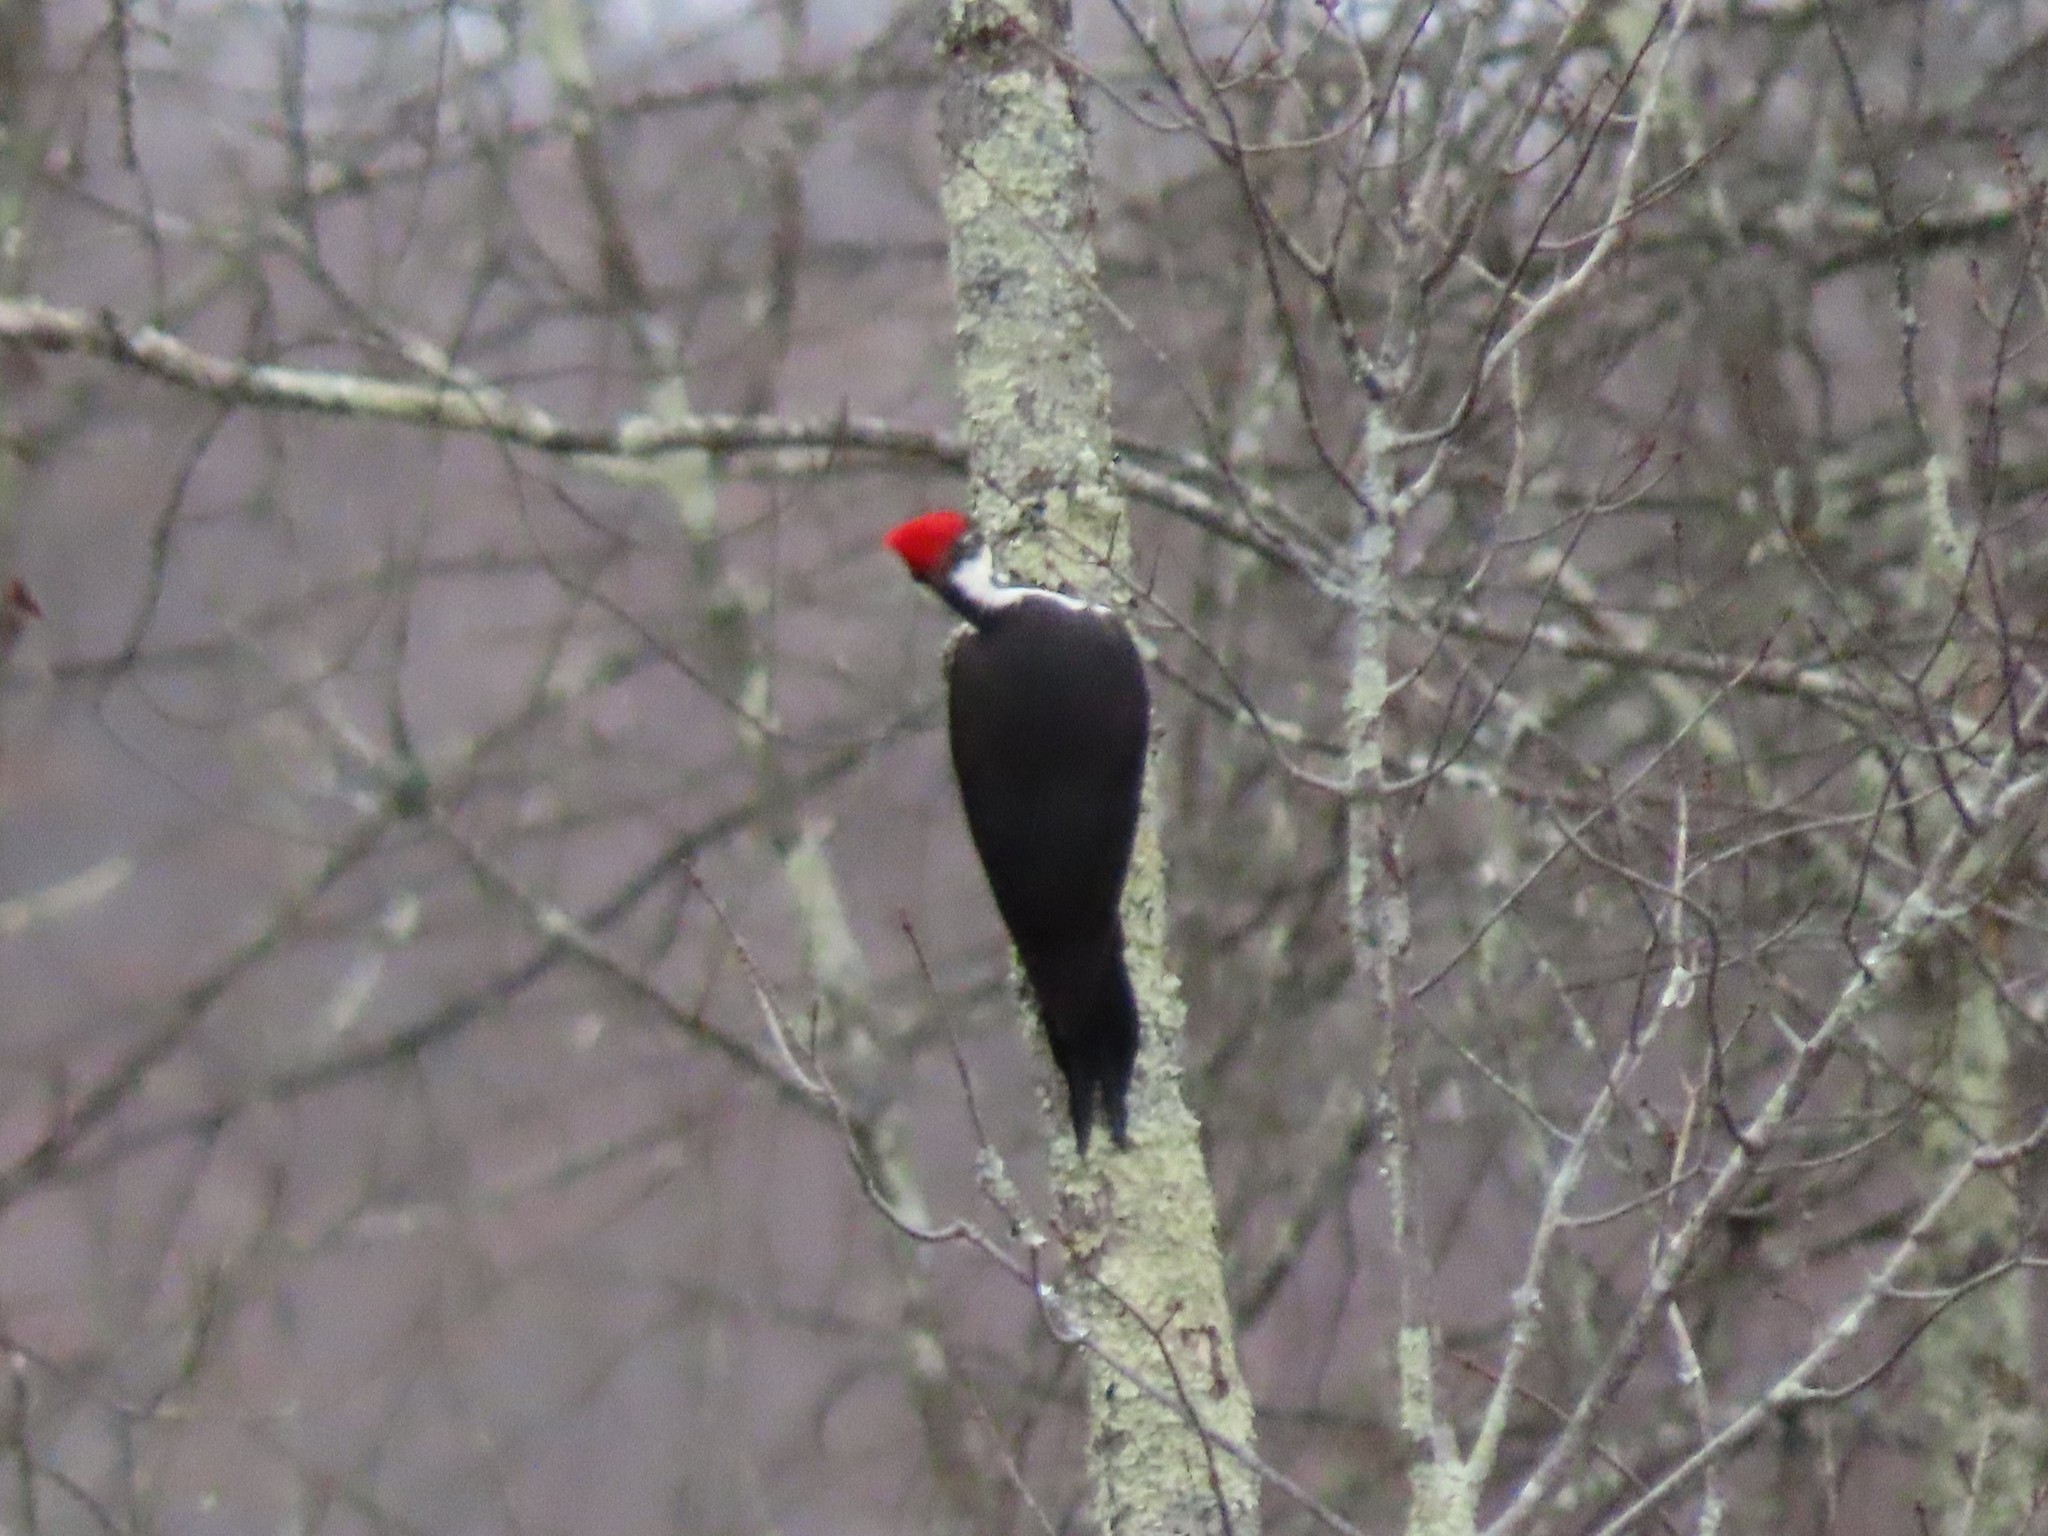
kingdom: Animalia
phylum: Chordata
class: Aves
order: Piciformes
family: Picidae
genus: Dryocopus
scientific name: Dryocopus pileatus
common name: Pileated woodpecker
